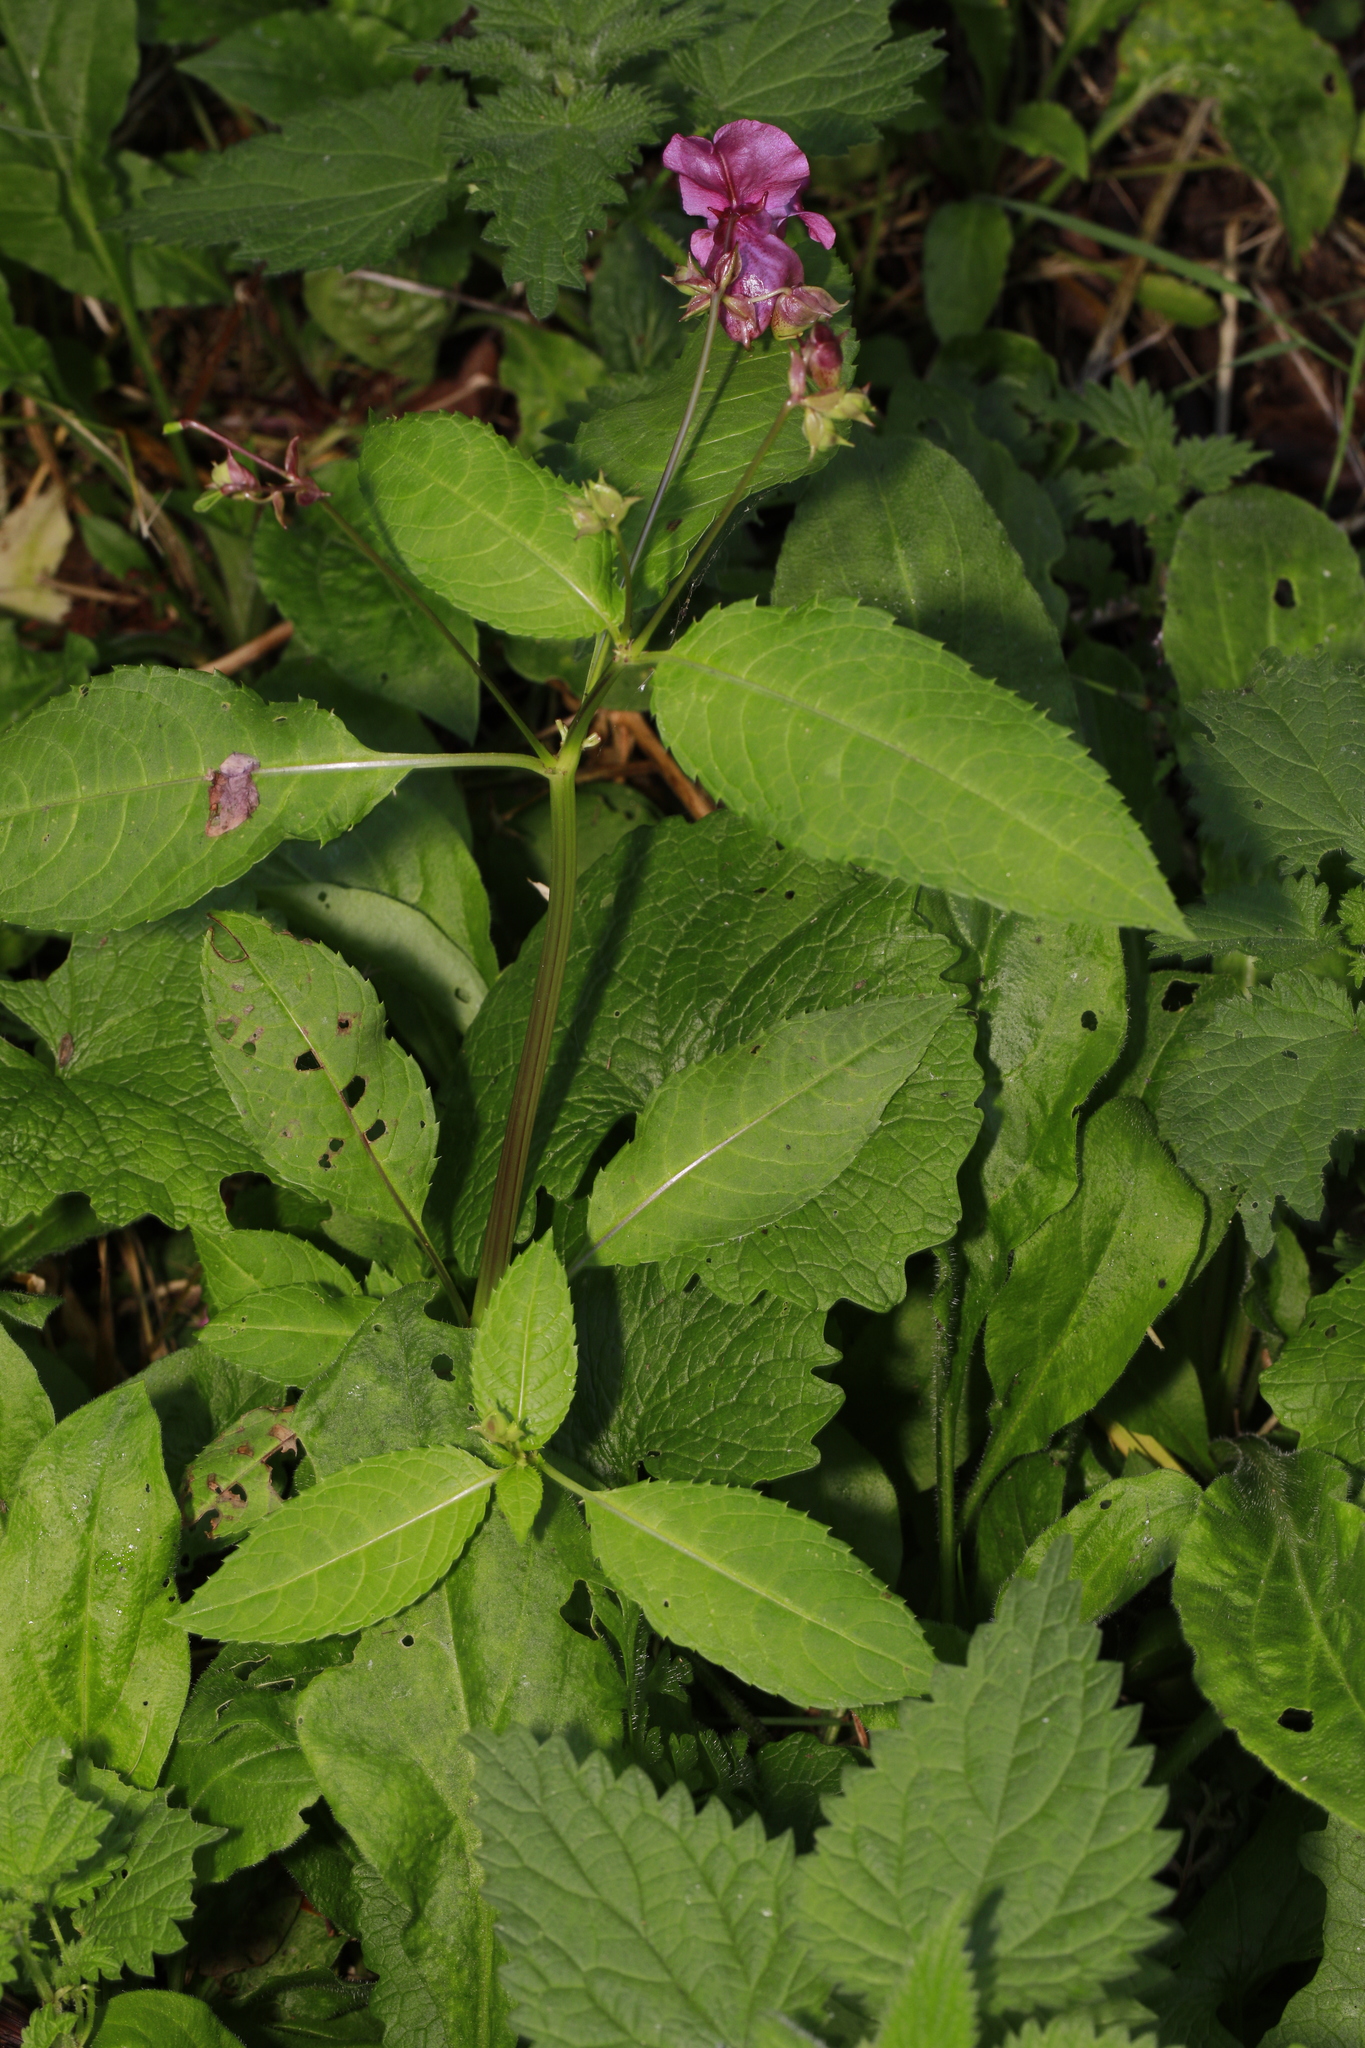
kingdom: Plantae
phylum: Tracheophyta
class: Magnoliopsida
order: Ericales
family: Balsaminaceae
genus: Impatiens
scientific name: Impatiens glandulifera
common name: Himalayan balsam
